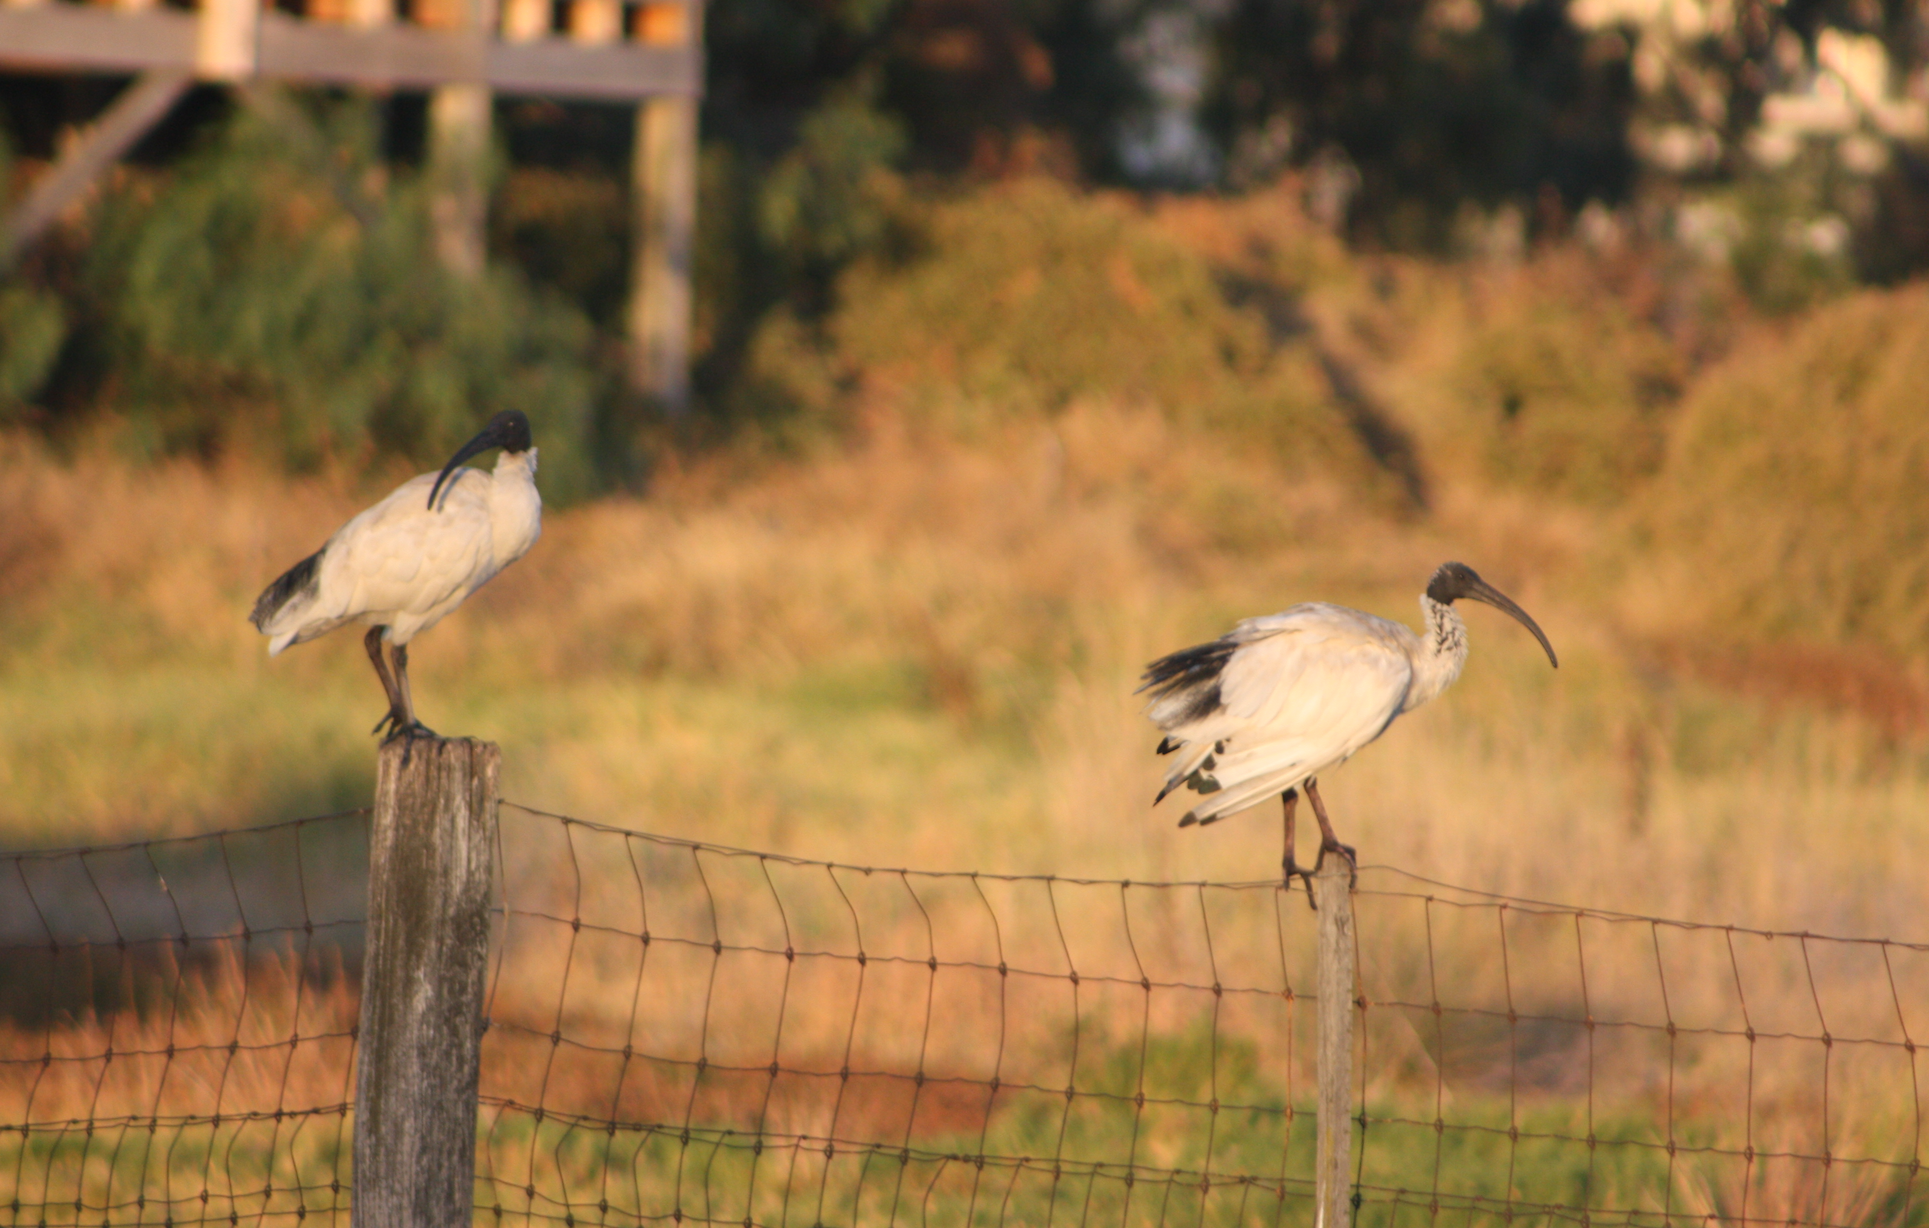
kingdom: Animalia
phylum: Chordata
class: Aves
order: Pelecaniformes
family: Threskiornithidae
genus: Threskiornis
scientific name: Threskiornis molucca
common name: Australian white ibis
